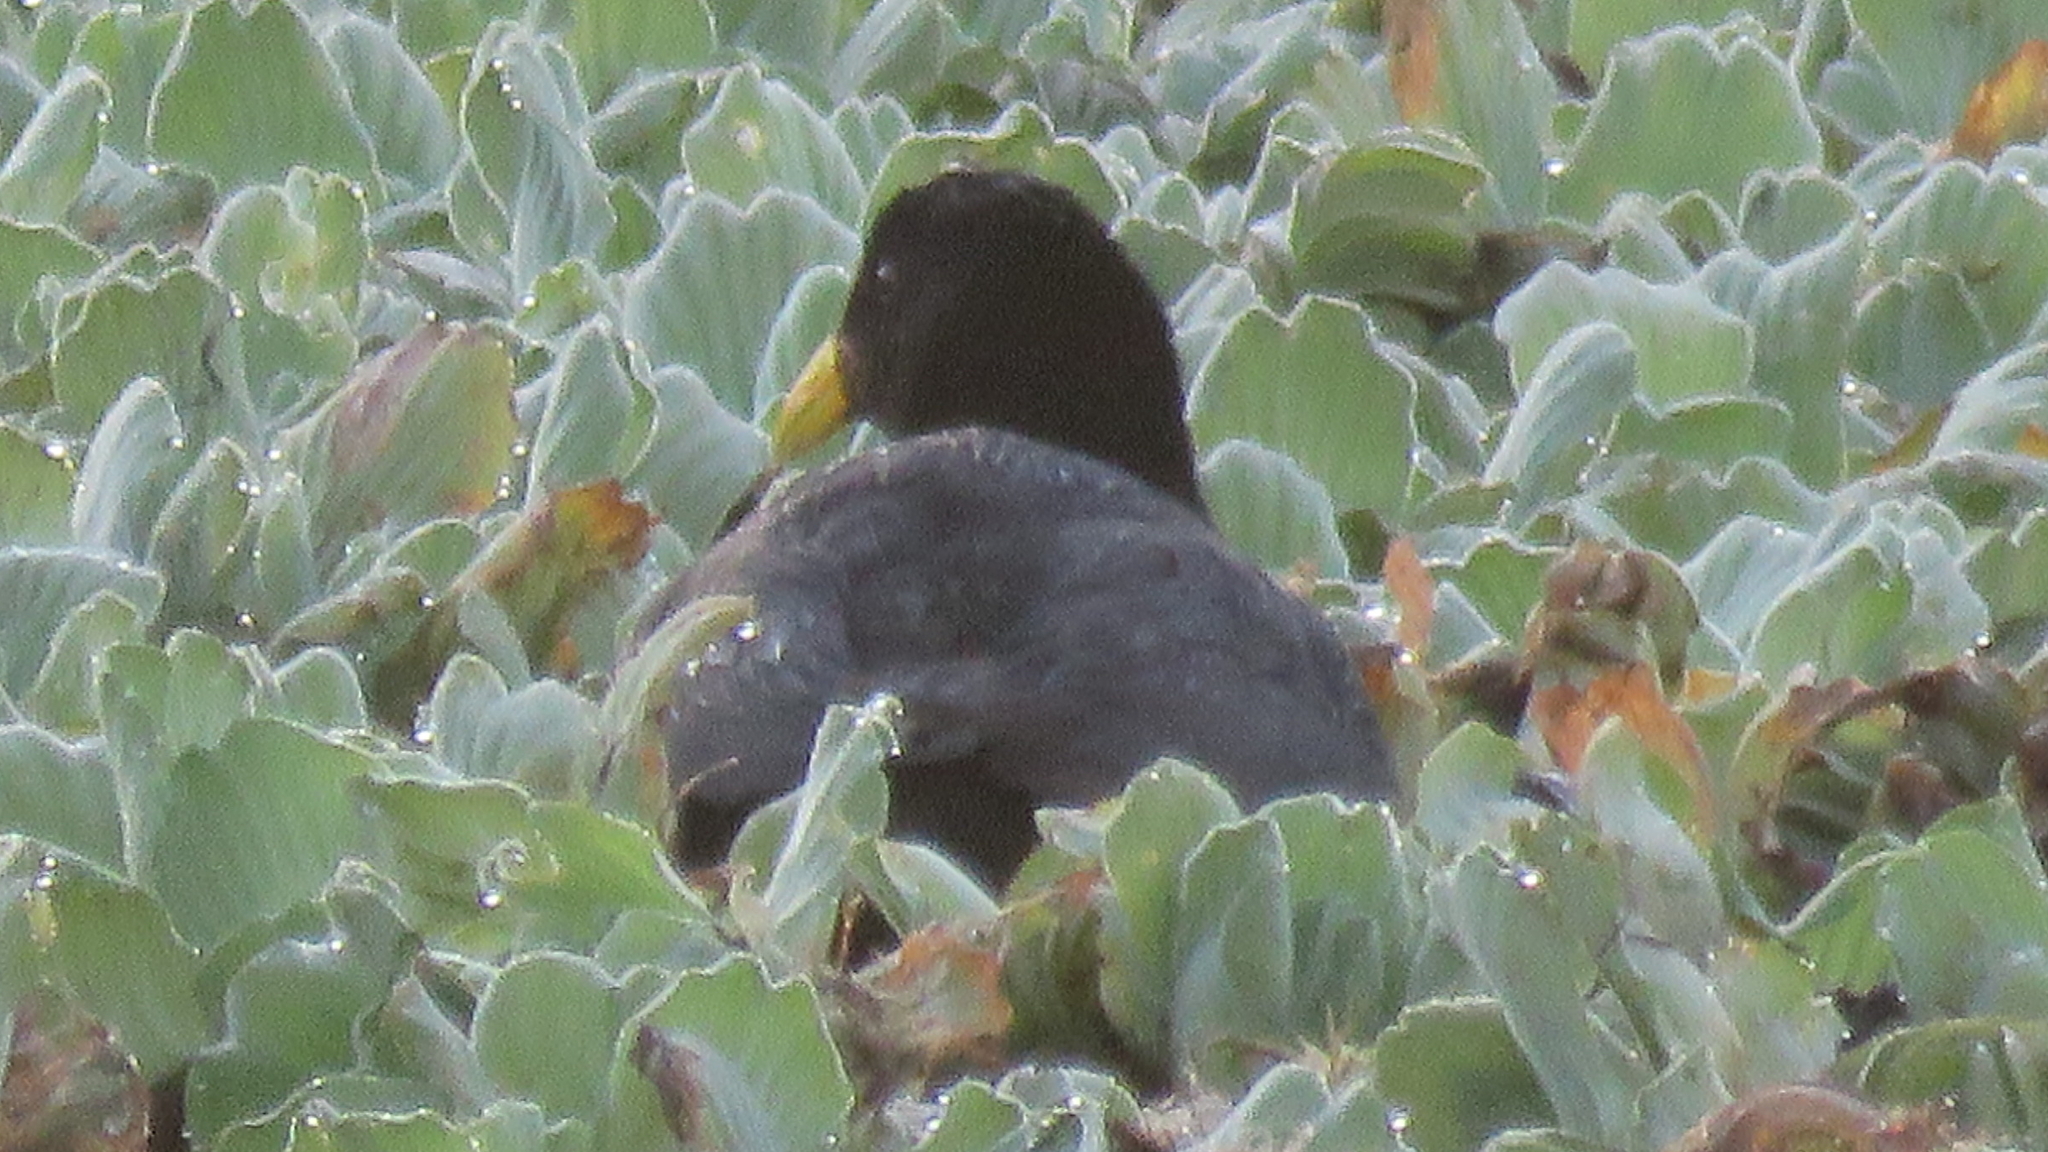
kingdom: Animalia
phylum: Chordata
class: Aves
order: Gruiformes
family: Rallidae
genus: Fulica
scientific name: Fulica rufifrons
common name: Red-fronted coot
